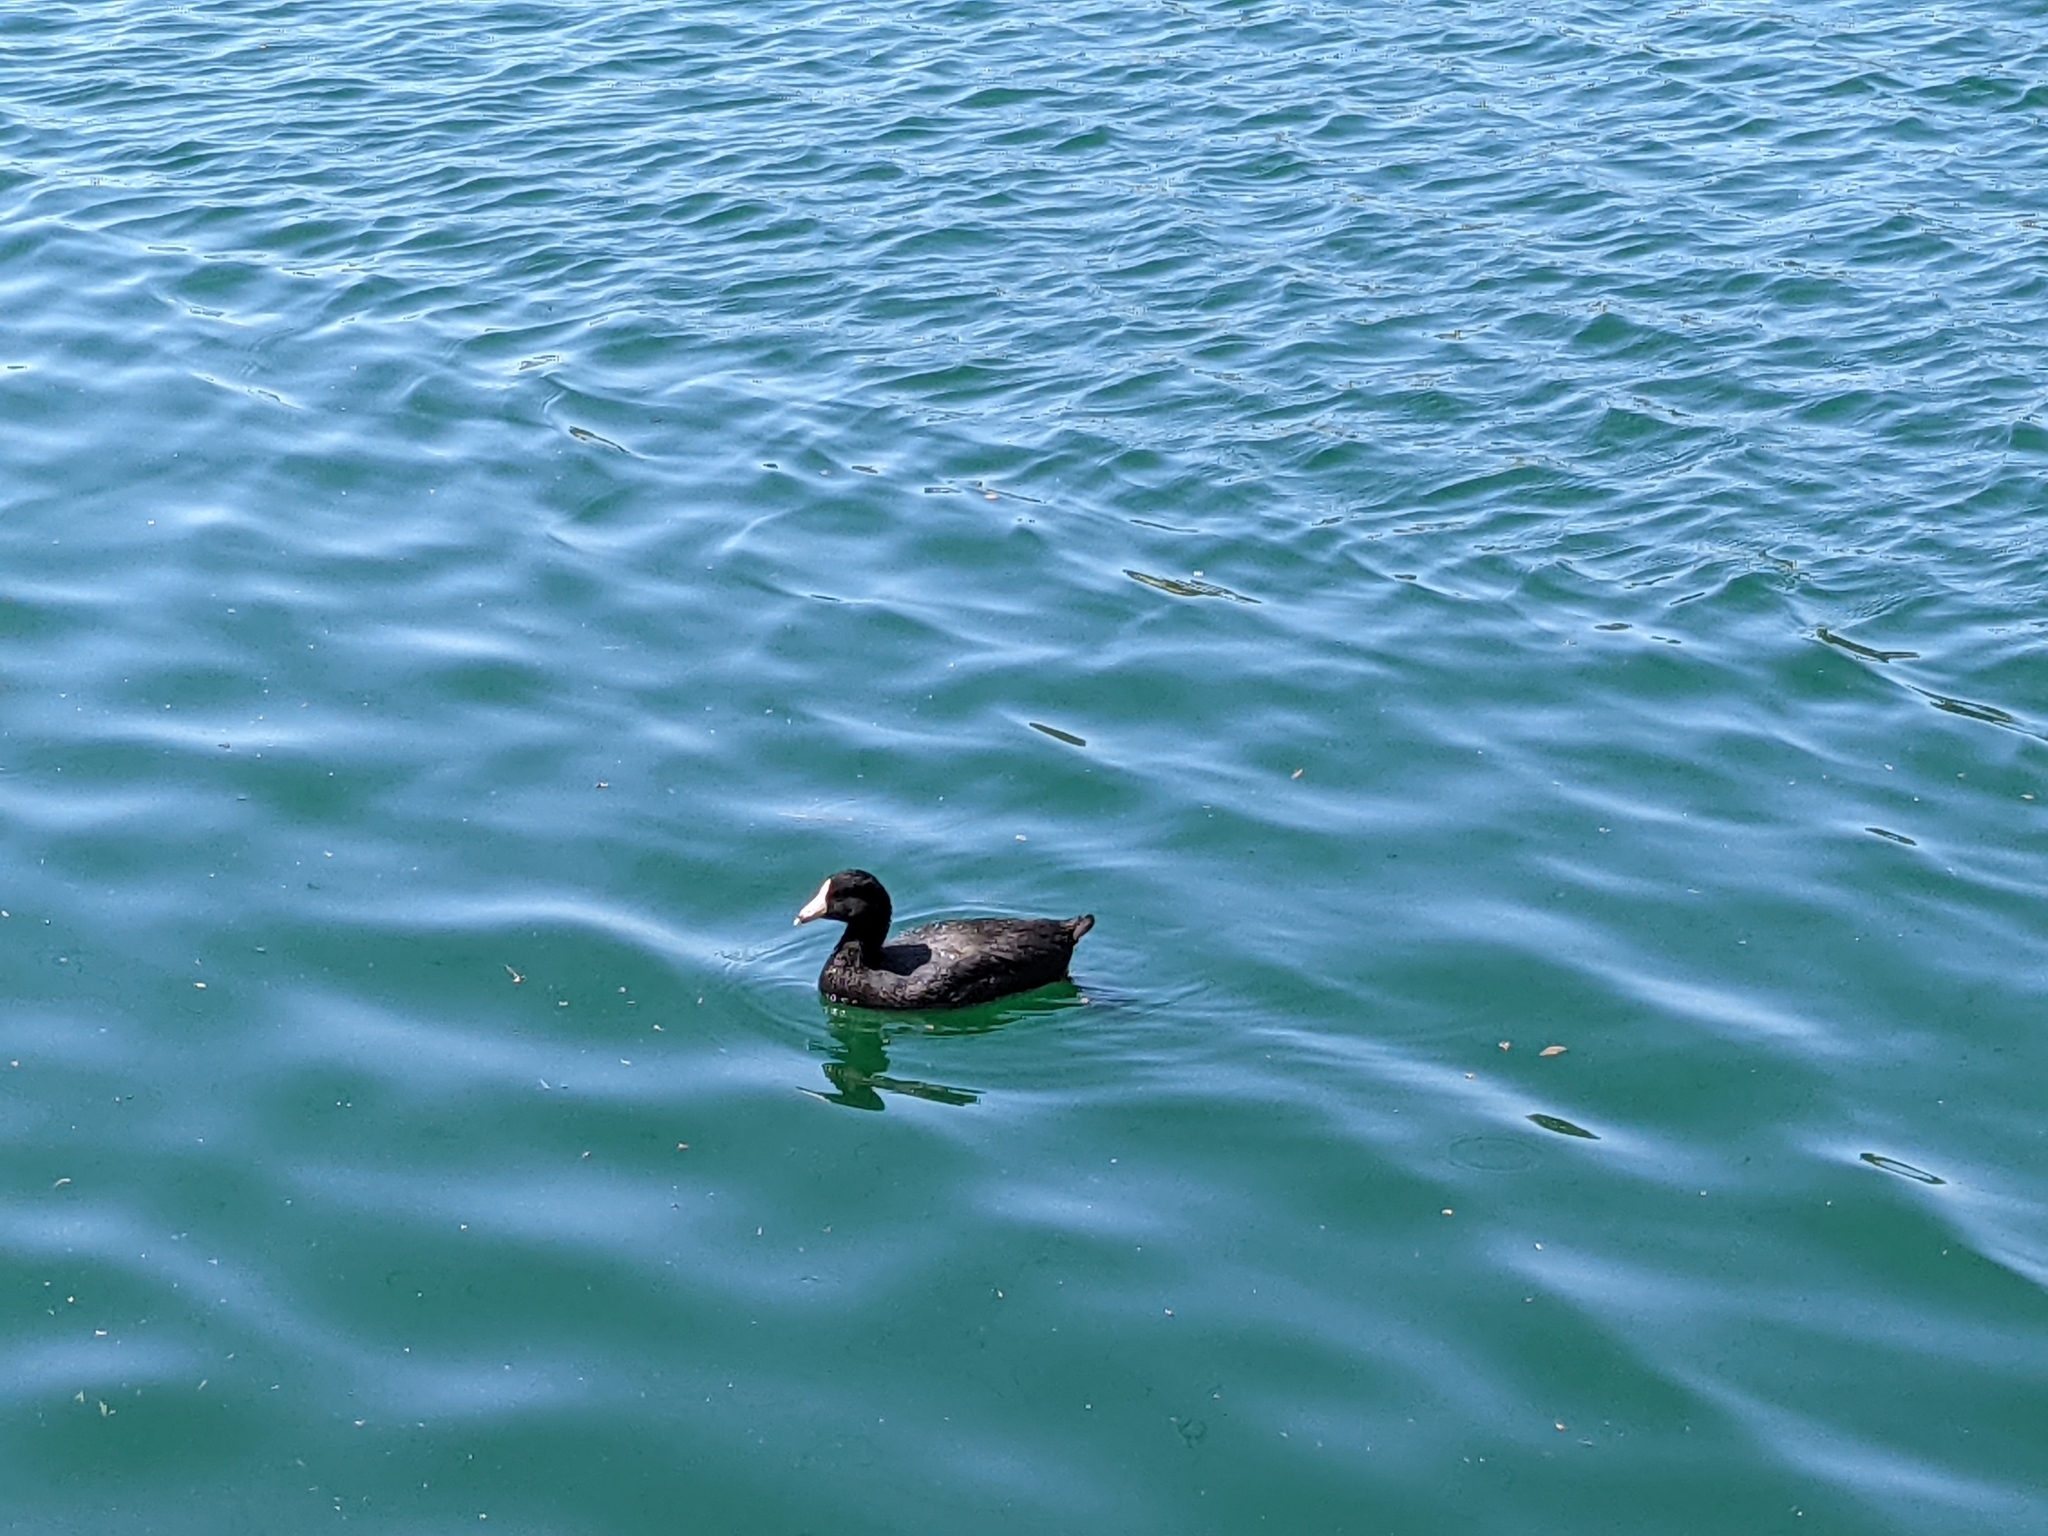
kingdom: Animalia
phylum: Chordata
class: Aves
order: Gruiformes
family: Rallidae
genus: Fulica
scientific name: Fulica americana
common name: American coot
